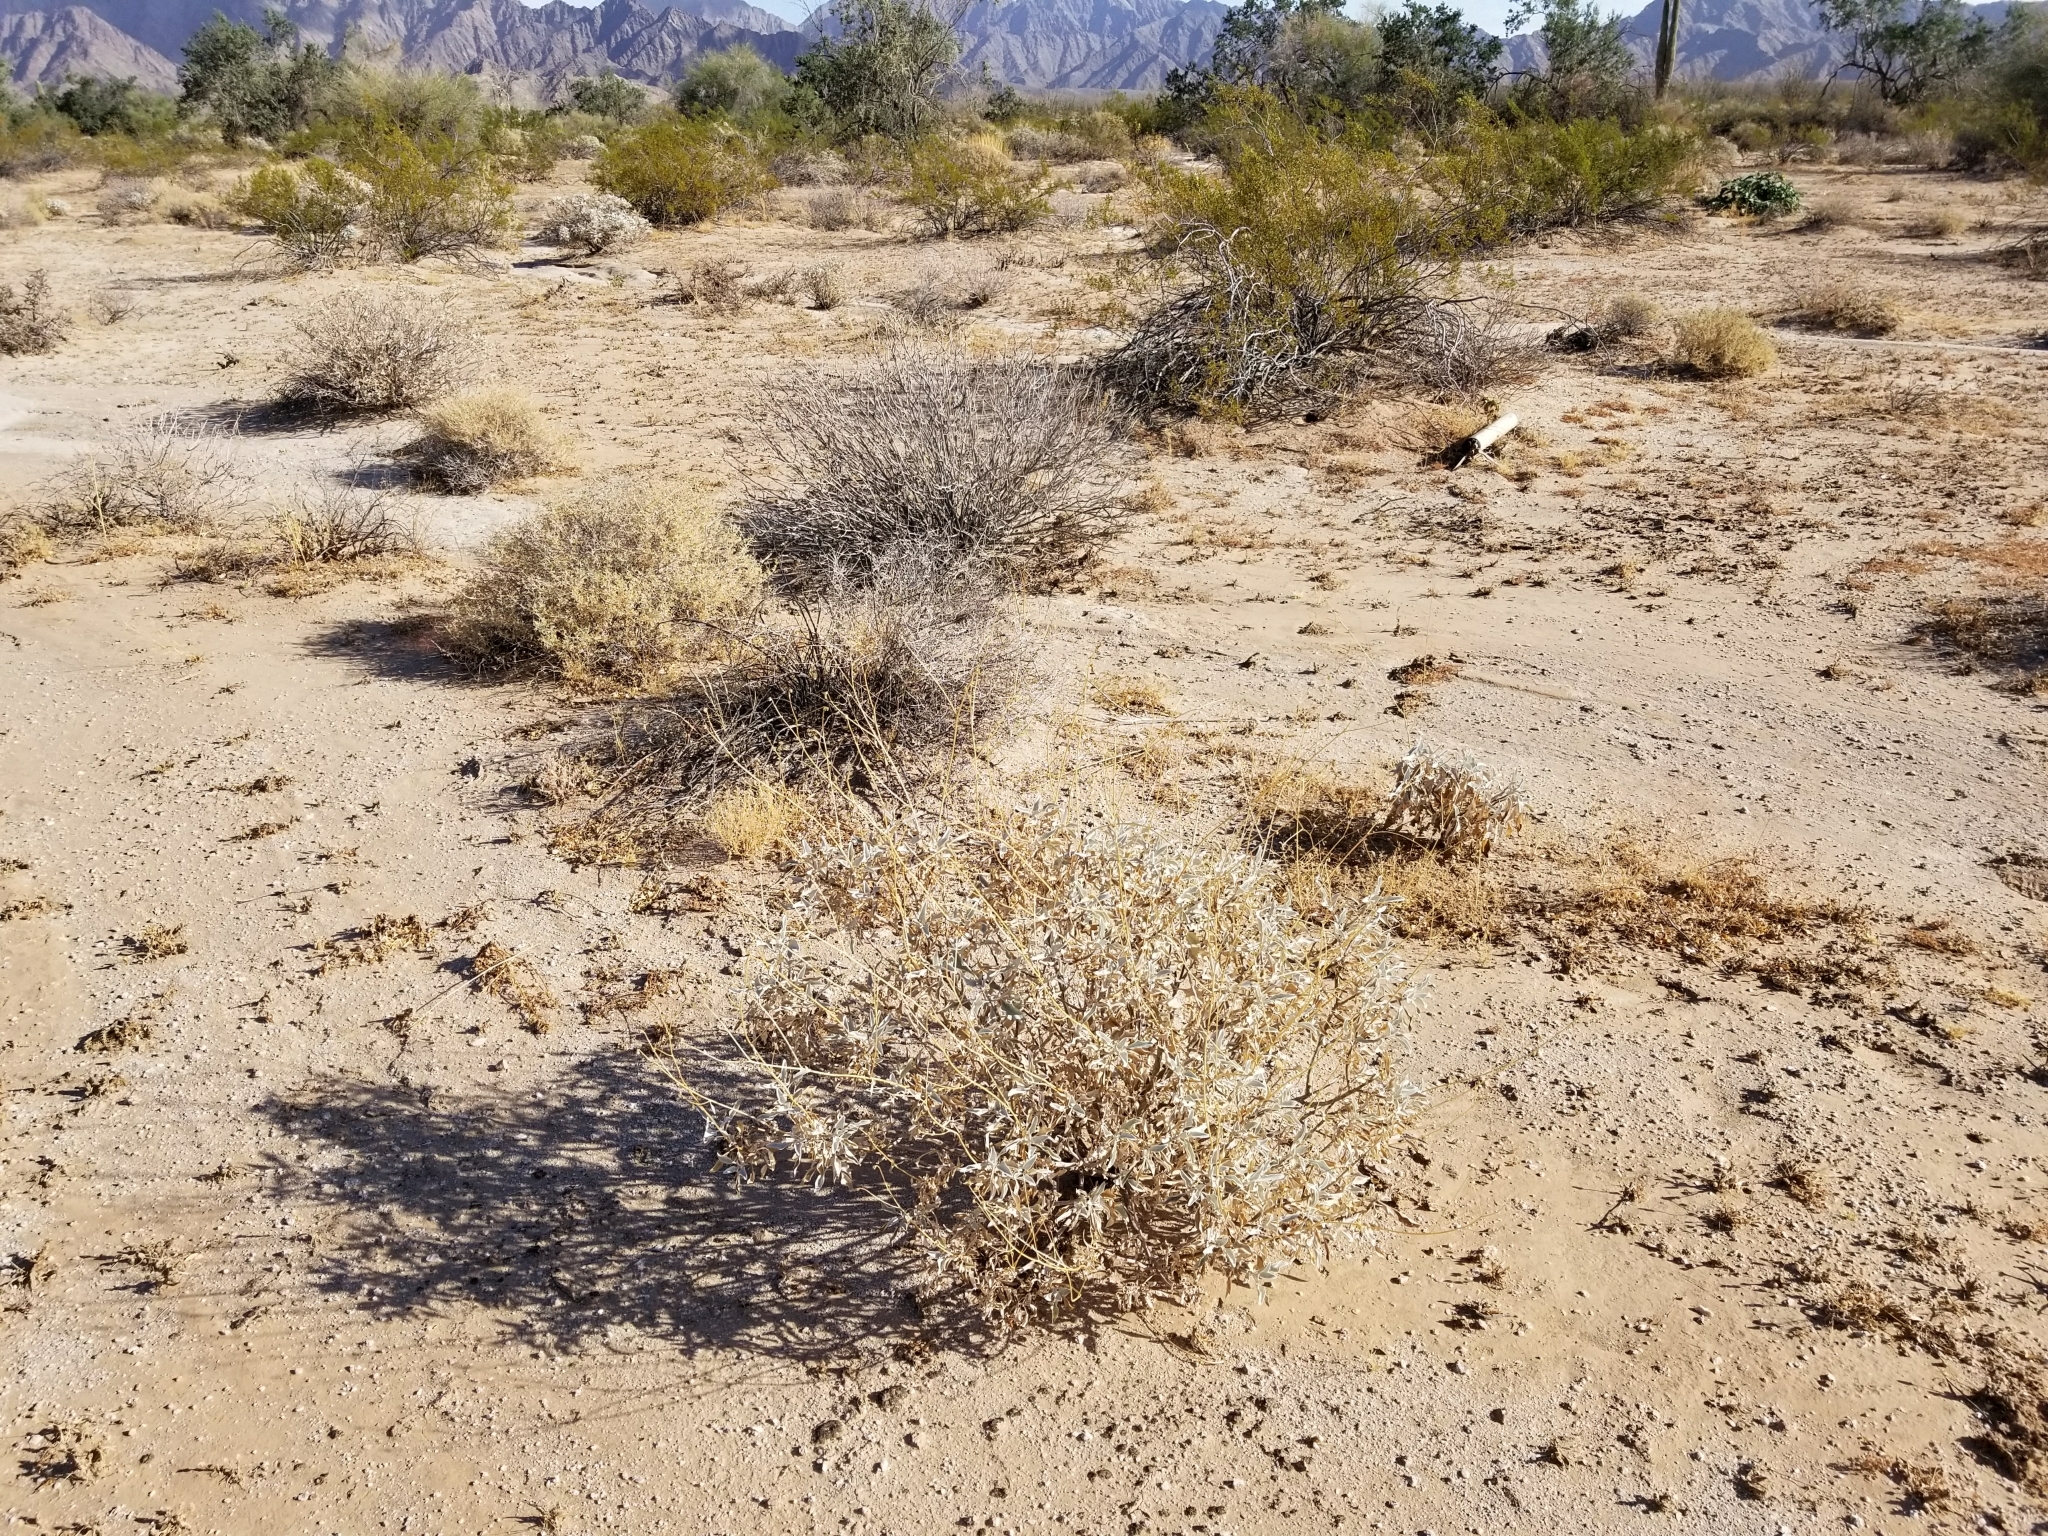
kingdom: Plantae
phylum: Tracheophyta
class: Magnoliopsida
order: Asterales
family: Asteraceae
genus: Encelia
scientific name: Encelia farinosa
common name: Brittlebush
